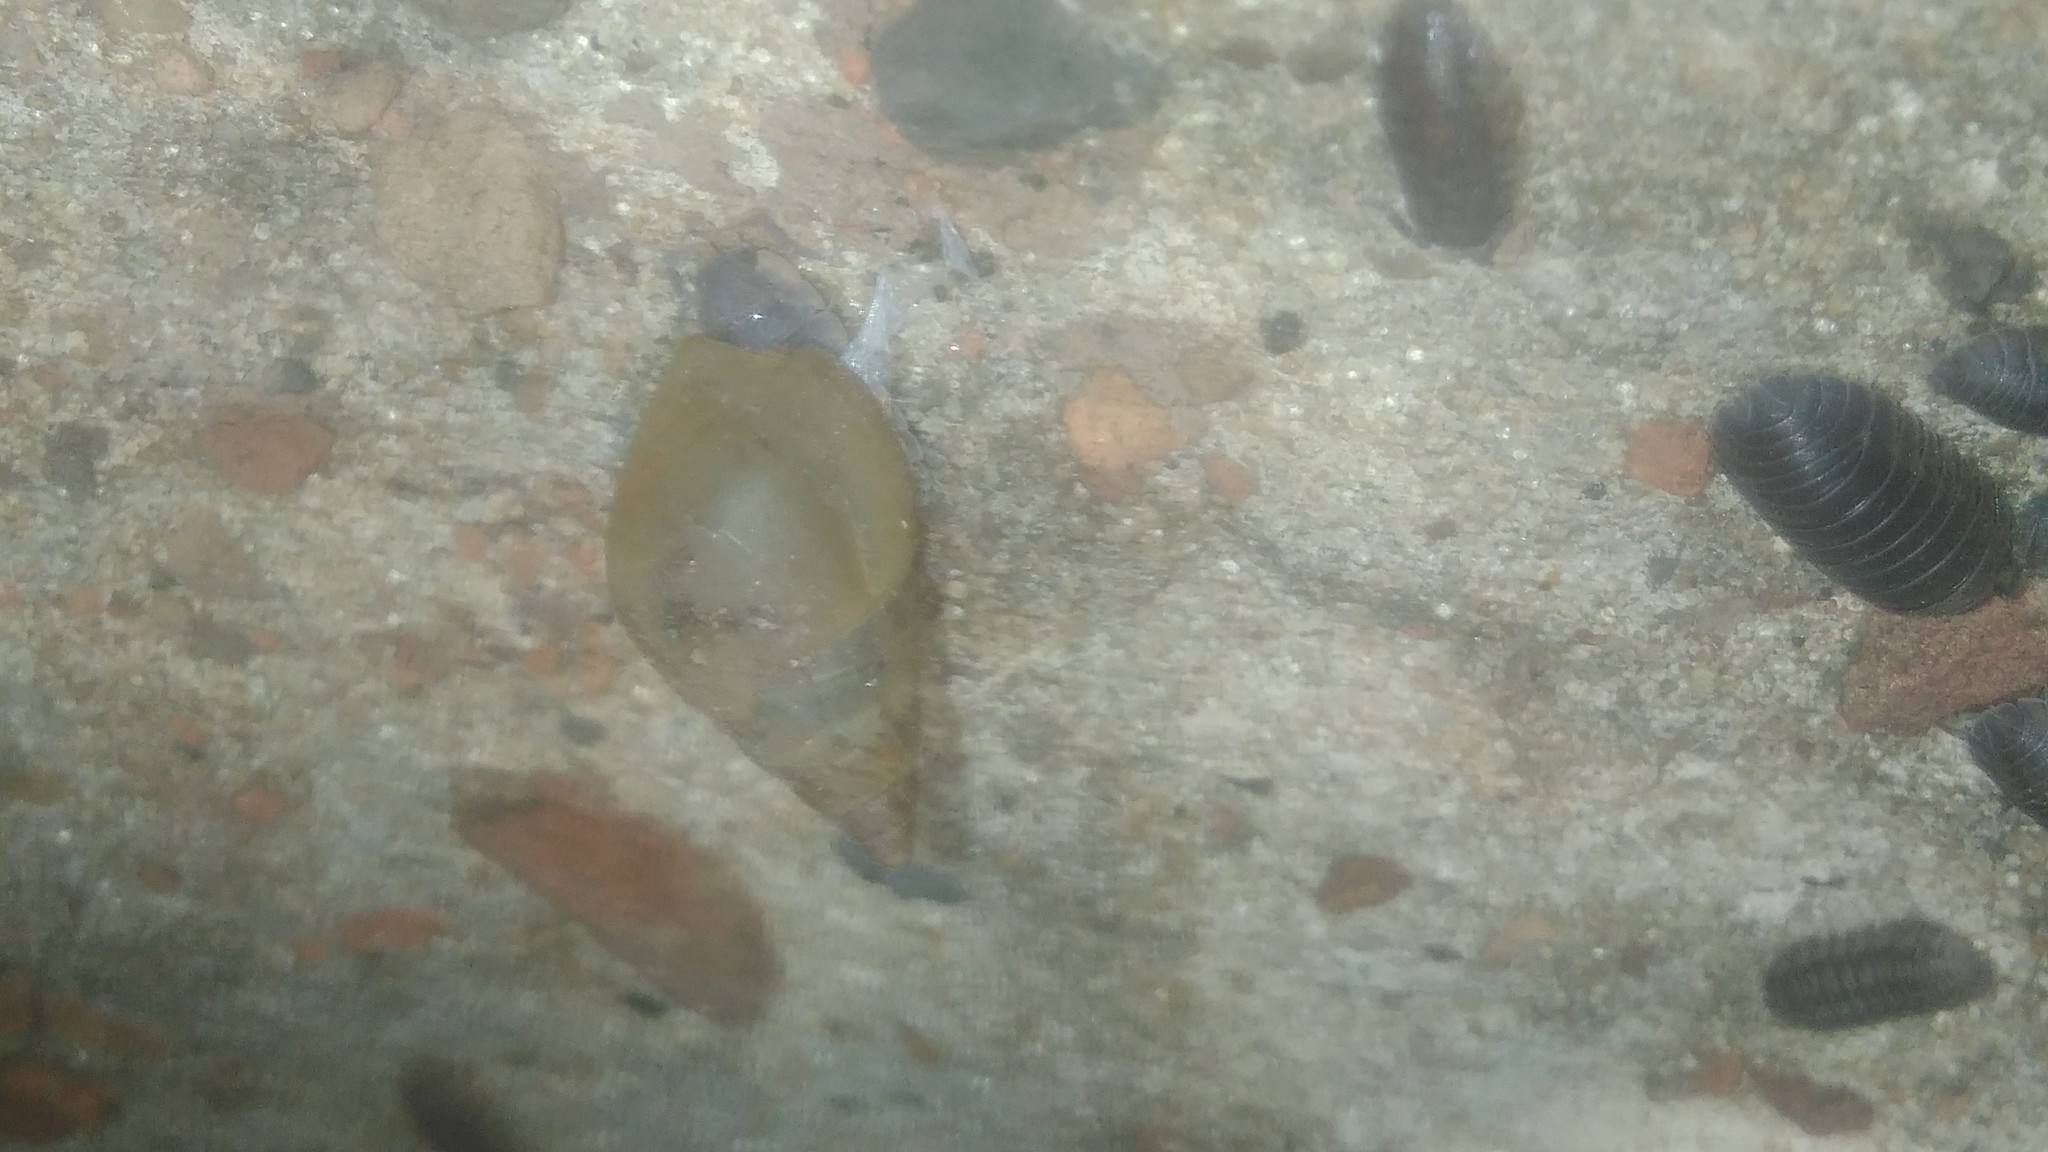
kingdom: Animalia
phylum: Mollusca
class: Gastropoda
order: Stylommatophora
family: Bulimulidae
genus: Bulimulus
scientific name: Bulimulus bonariensis
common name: Snail
